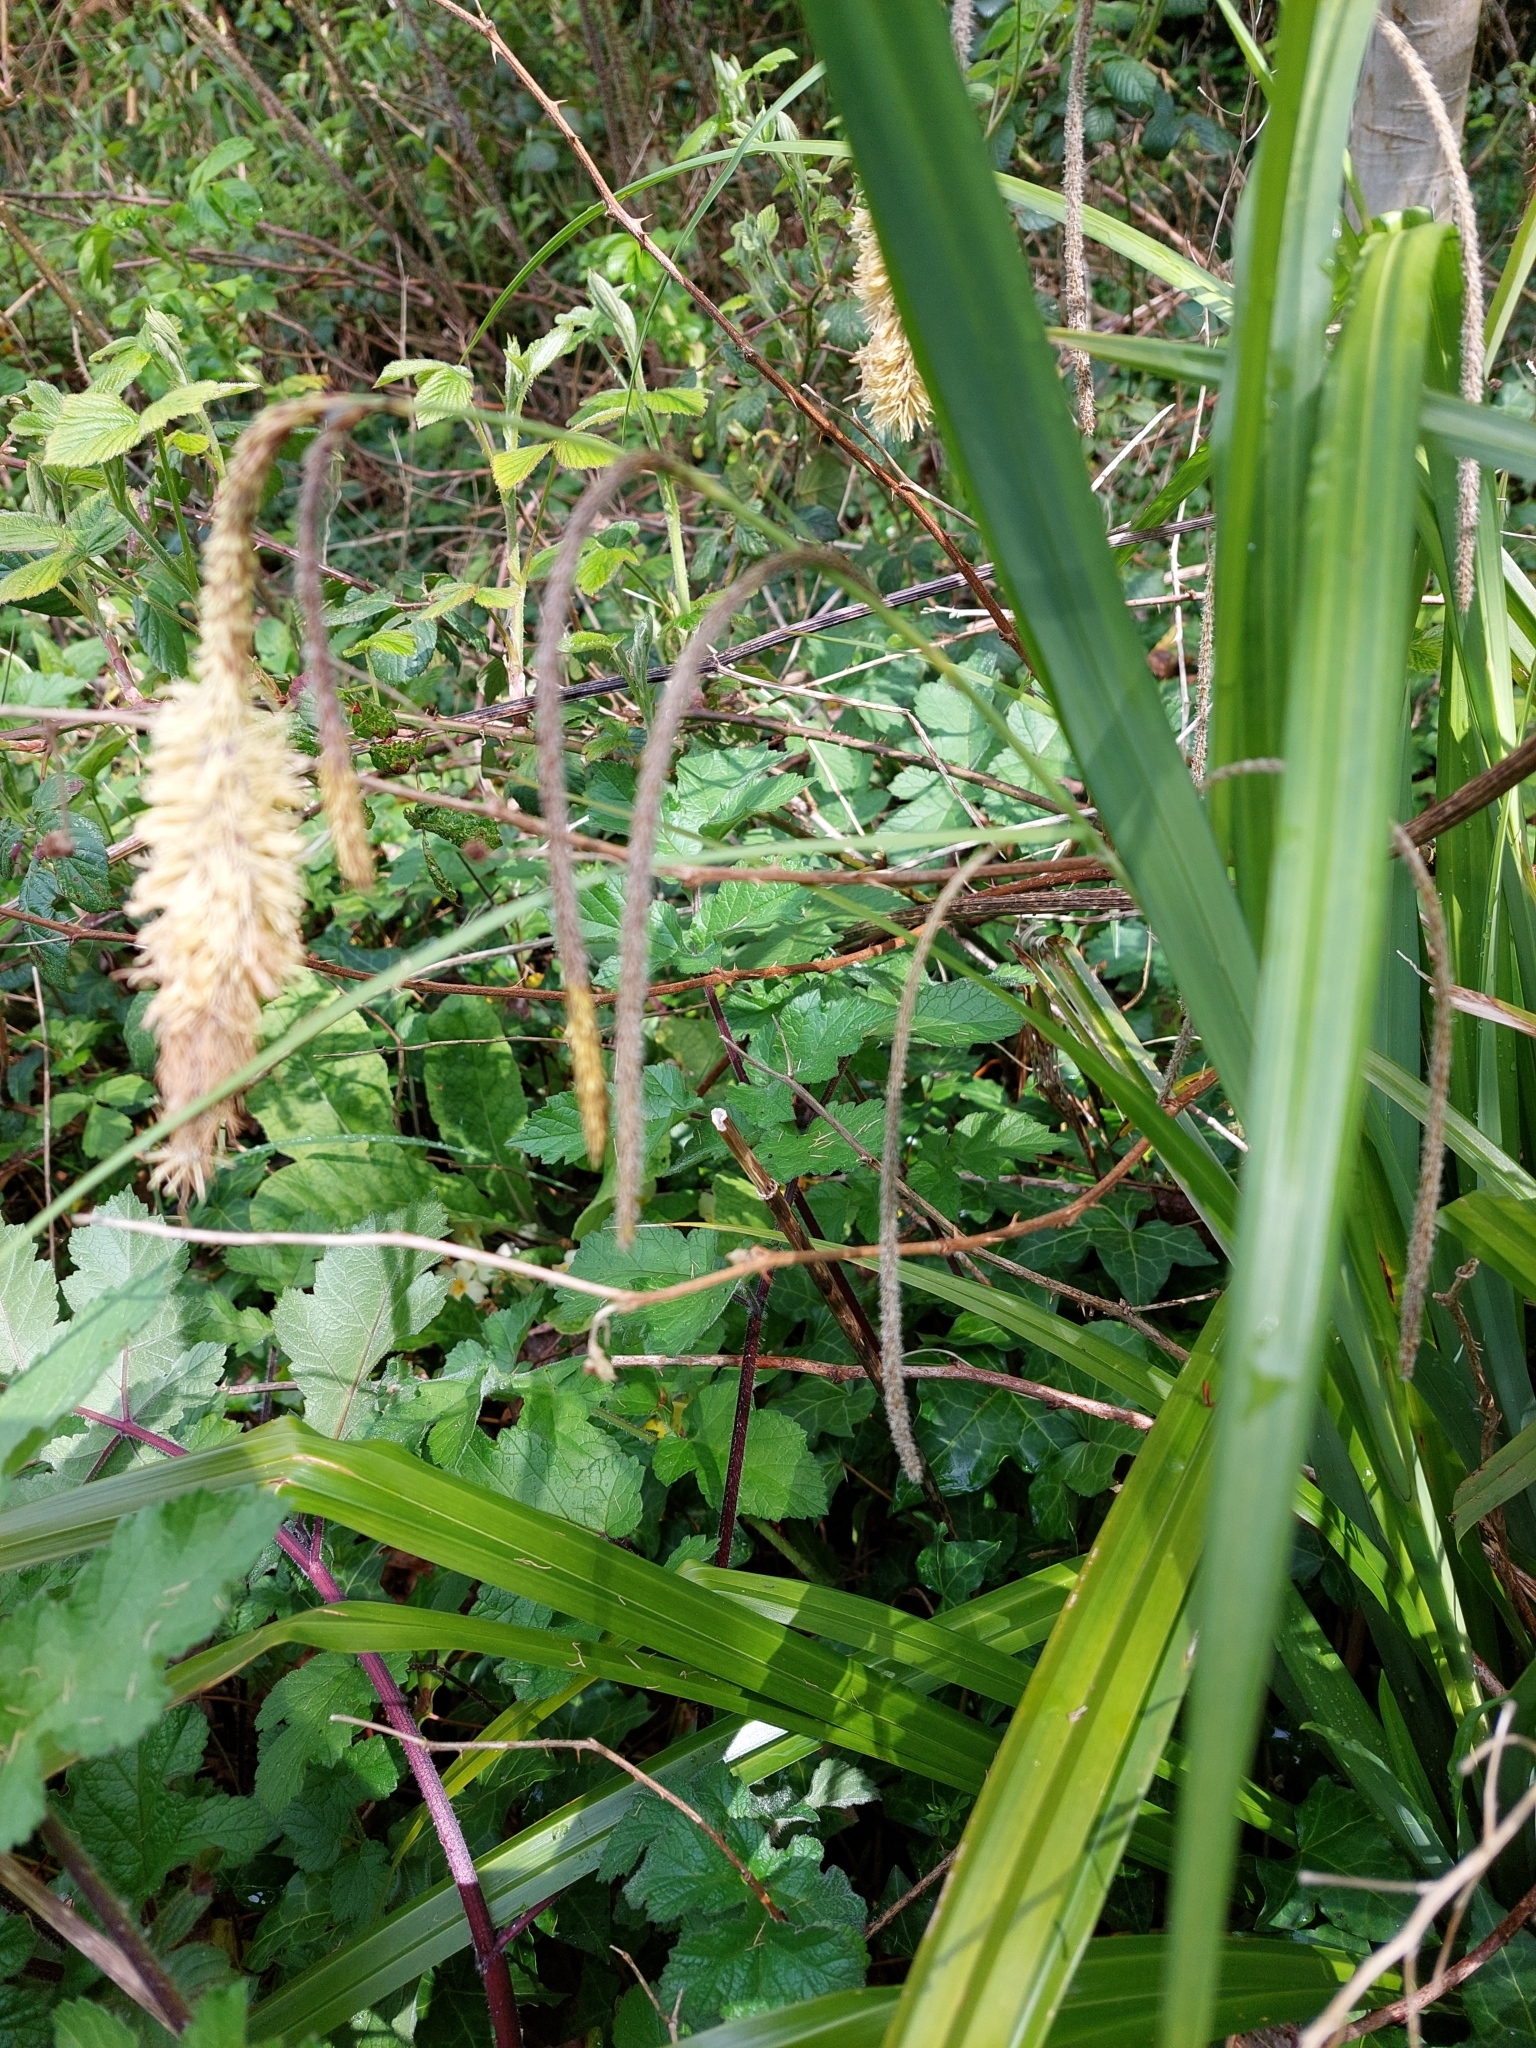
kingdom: Plantae
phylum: Tracheophyta
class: Liliopsida
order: Poales
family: Cyperaceae
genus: Carex
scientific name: Carex pendula
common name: Pendulous sedge
